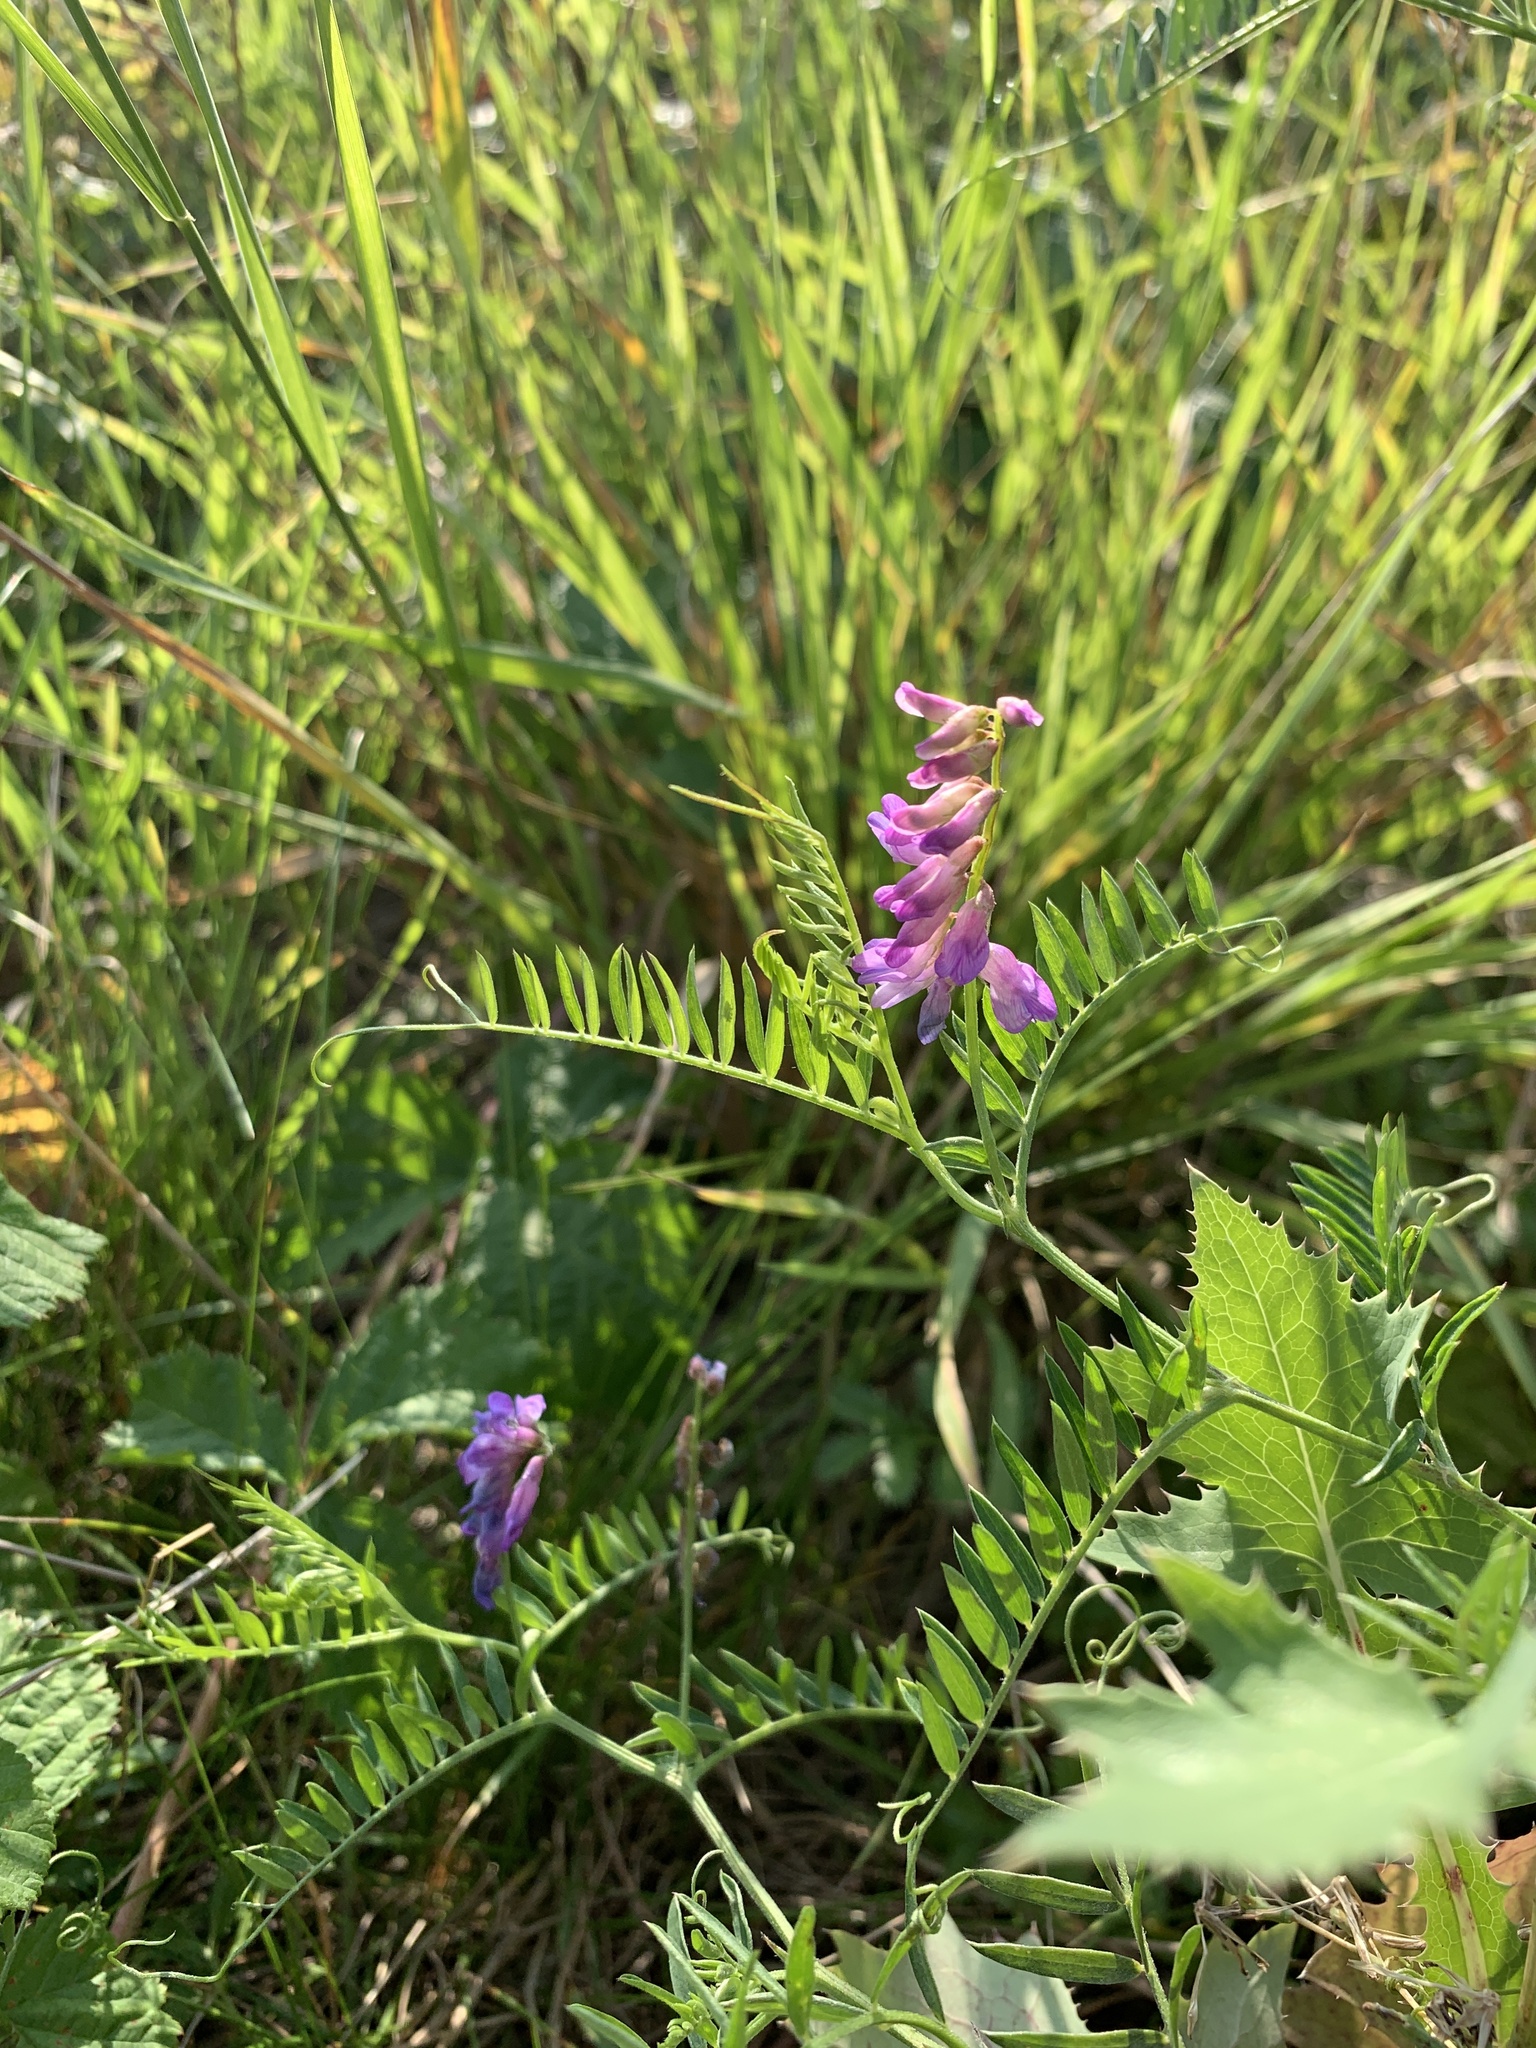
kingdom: Plantae
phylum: Tracheophyta
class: Magnoliopsida
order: Fabales
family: Fabaceae
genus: Vicia
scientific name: Vicia cracca
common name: Bird vetch
